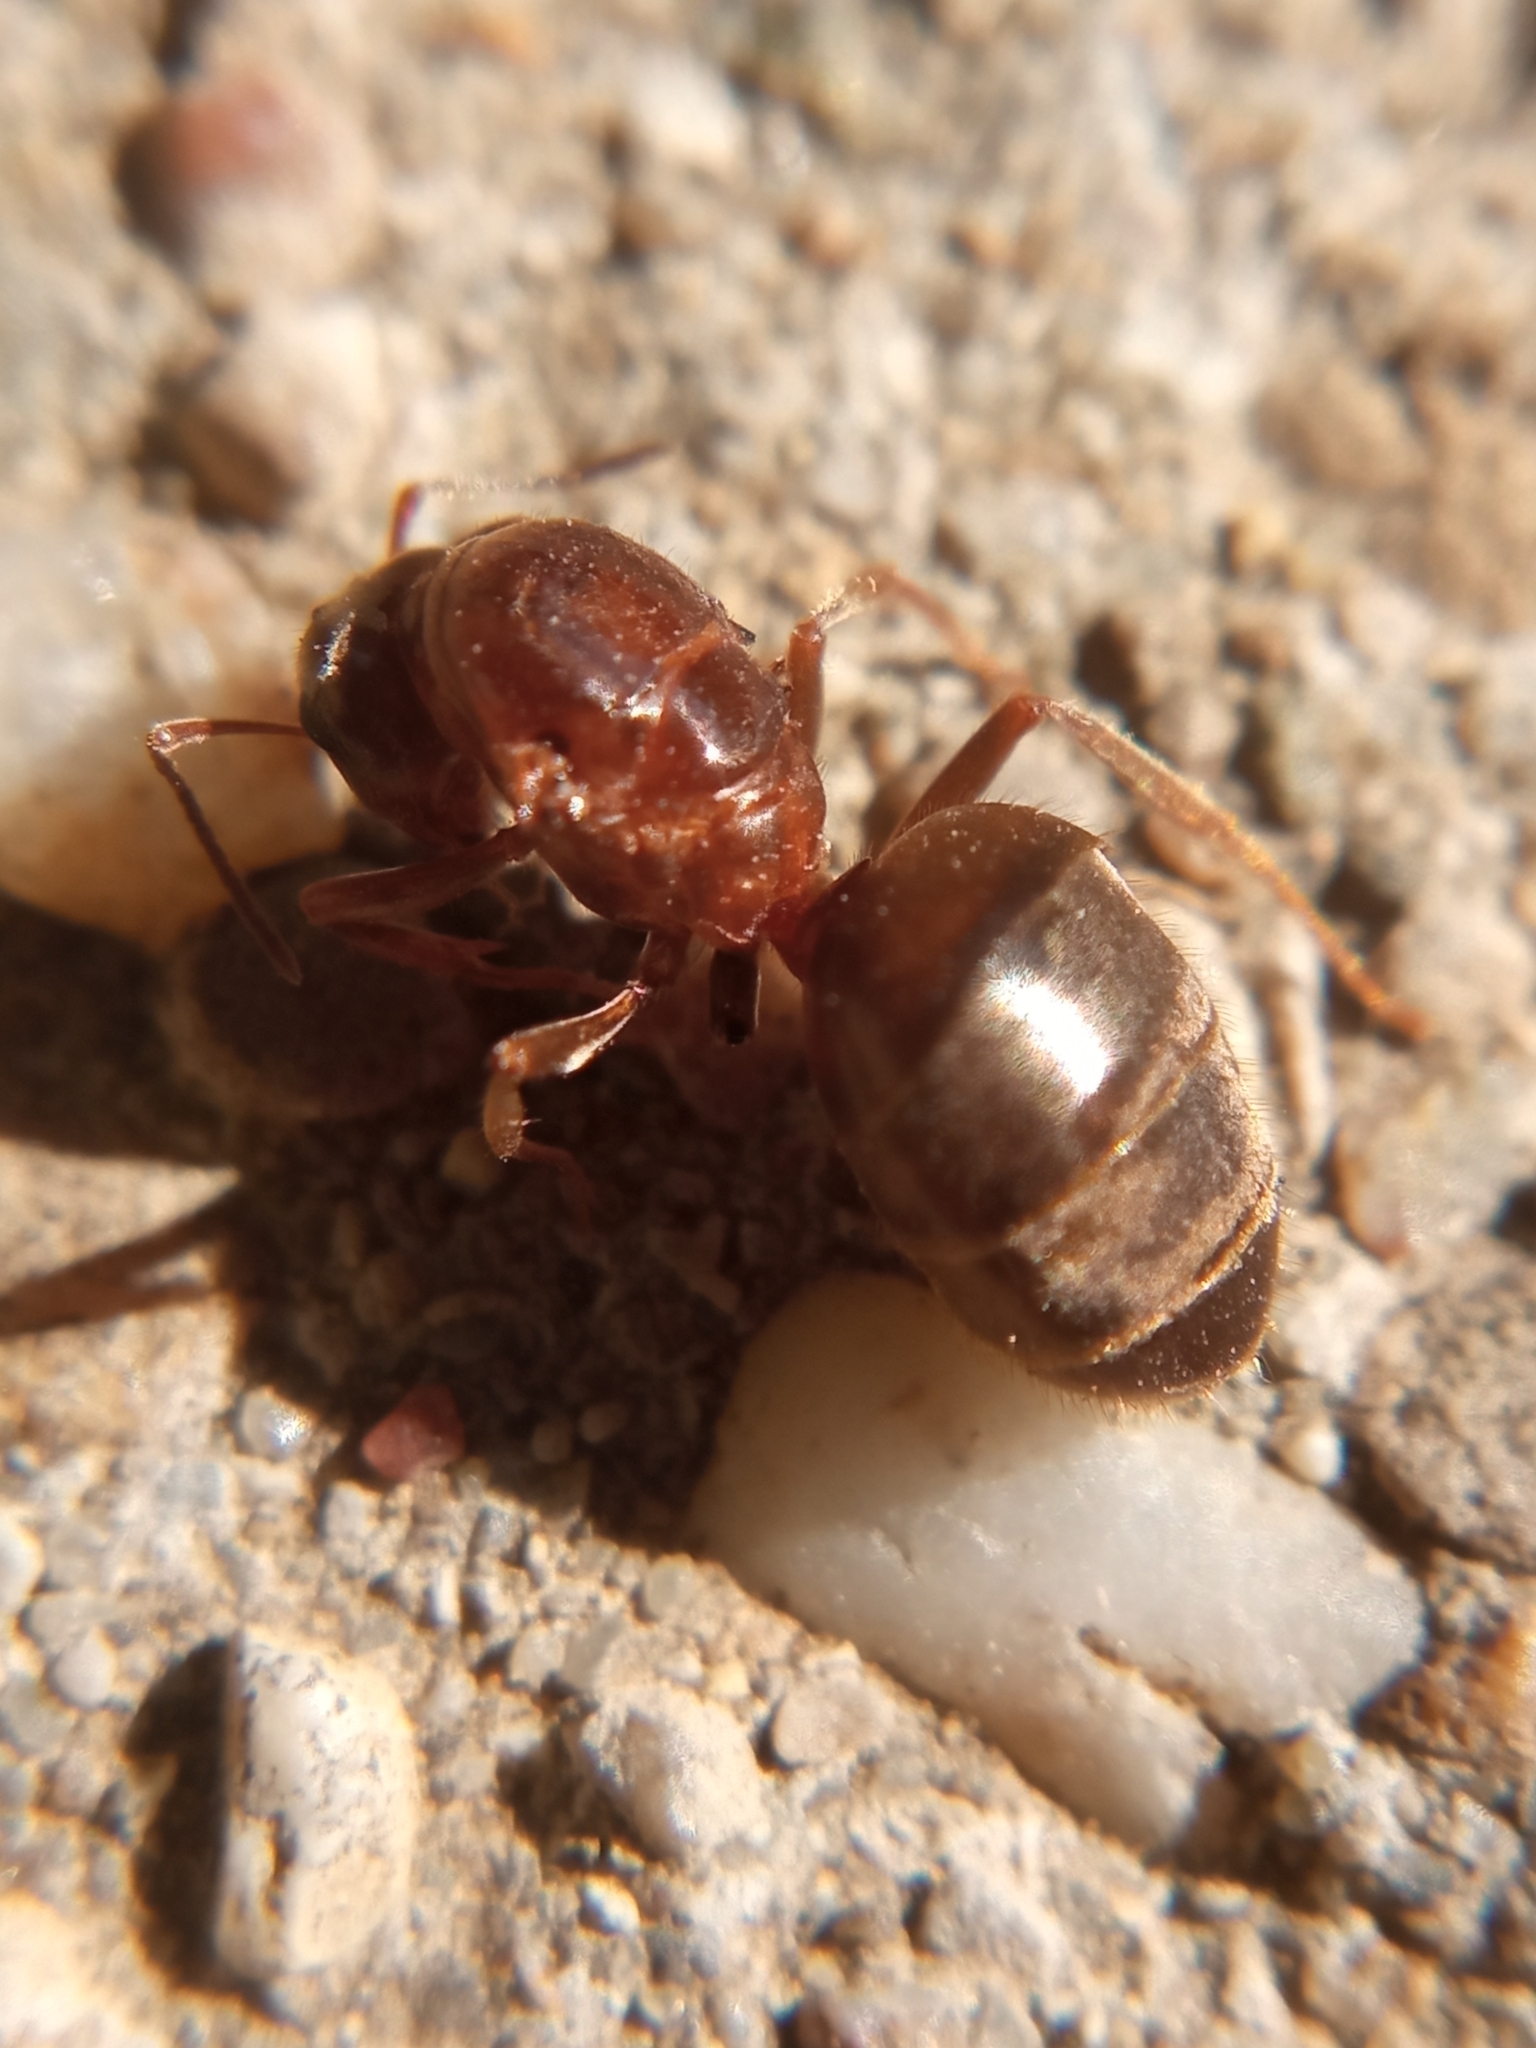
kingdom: Animalia
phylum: Arthropoda
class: Insecta
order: Hymenoptera
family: Formicidae
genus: Lasius
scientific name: Lasius emarginatus
